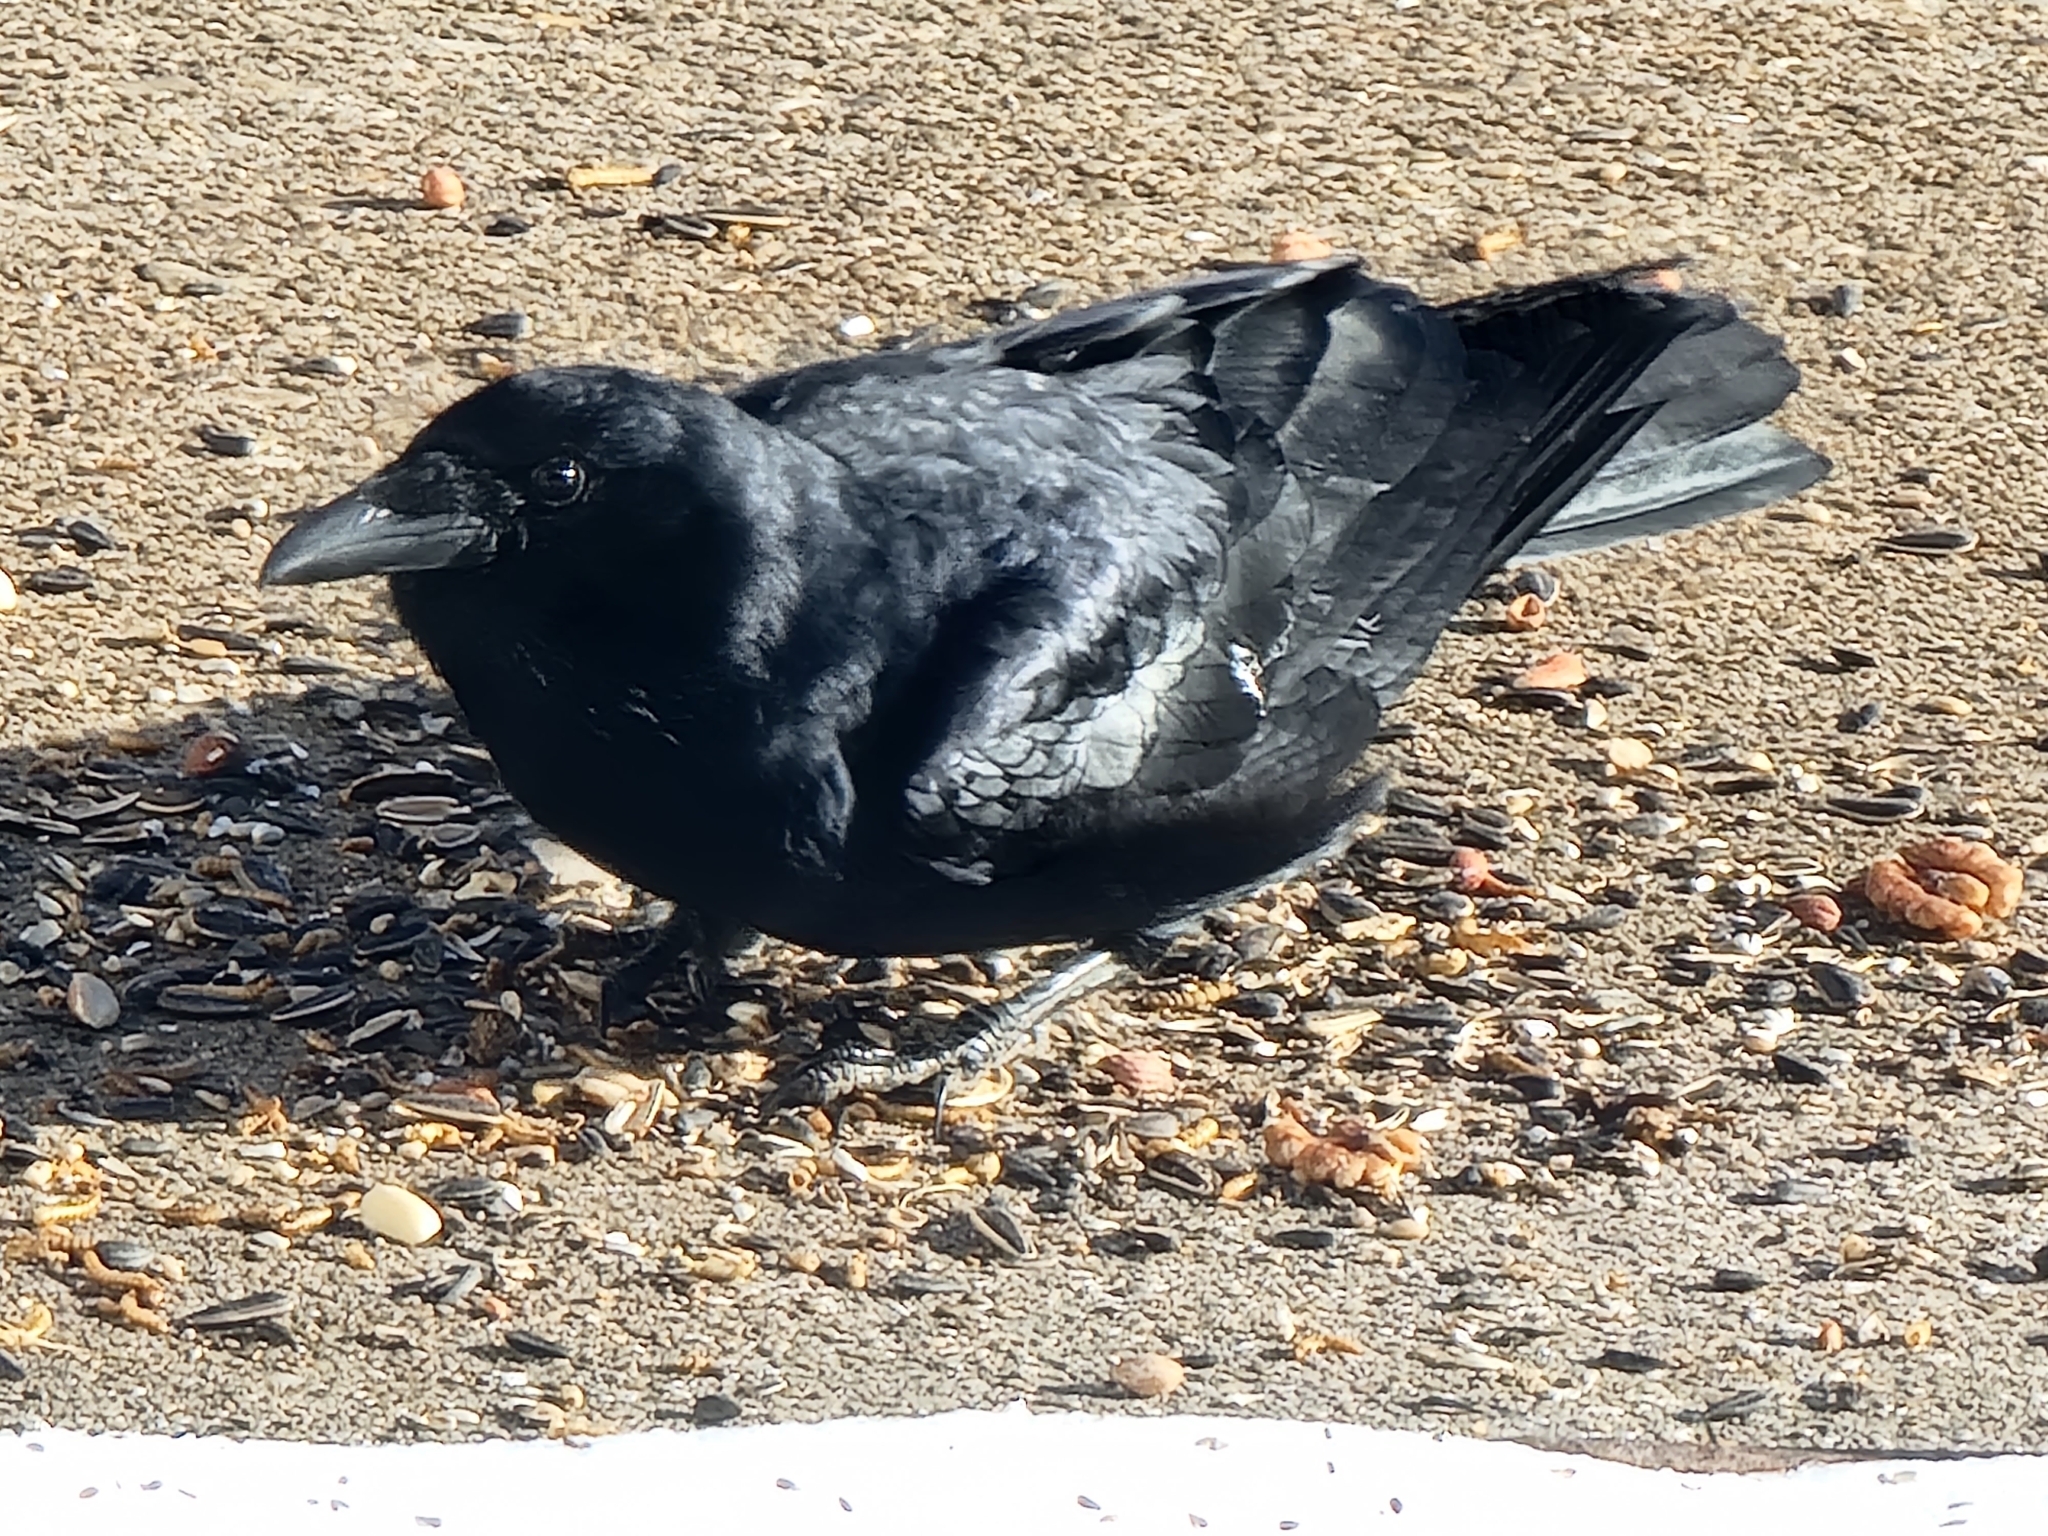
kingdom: Animalia
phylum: Chordata
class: Aves
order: Passeriformes
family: Corvidae
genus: Corvus
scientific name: Corvus brachyrhynchos
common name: American crow
